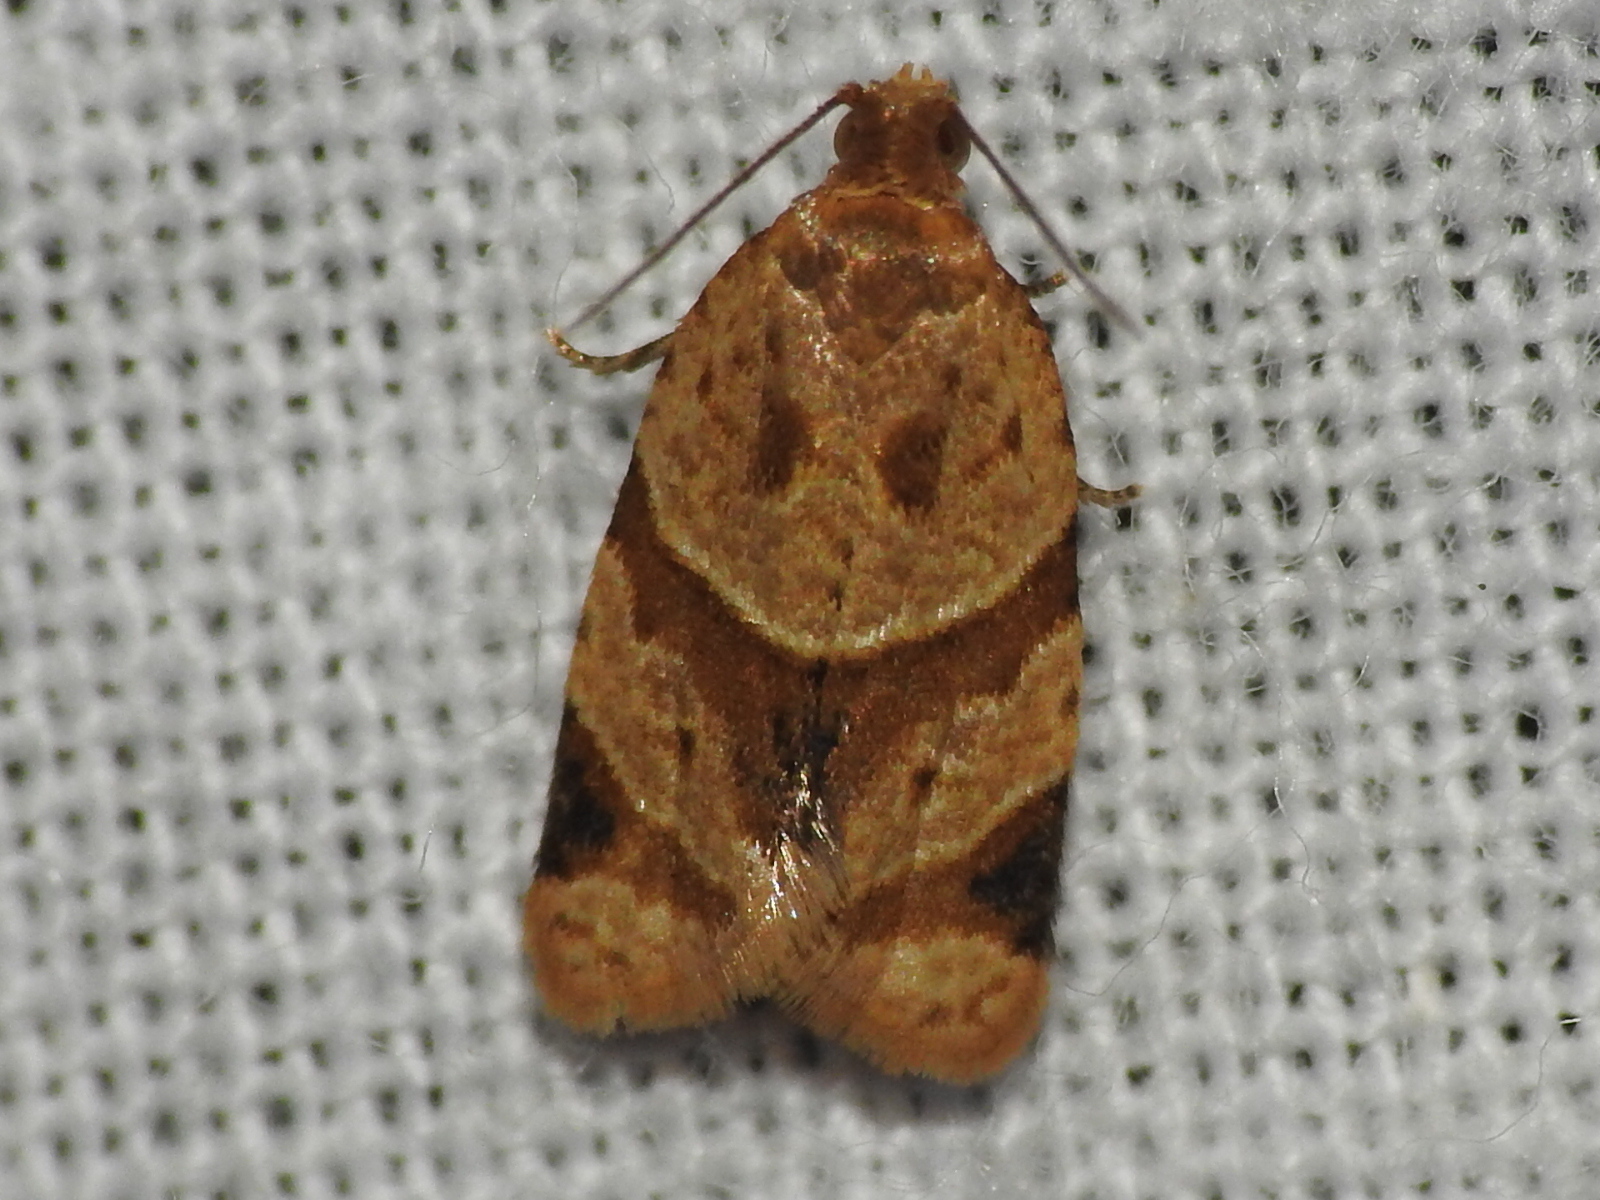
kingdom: Animalia
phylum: Arthropoda
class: Insecta
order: Lepidoptera
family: Tortricidae
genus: Clepsis
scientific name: Clepsis peritana
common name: Garden tortrix
